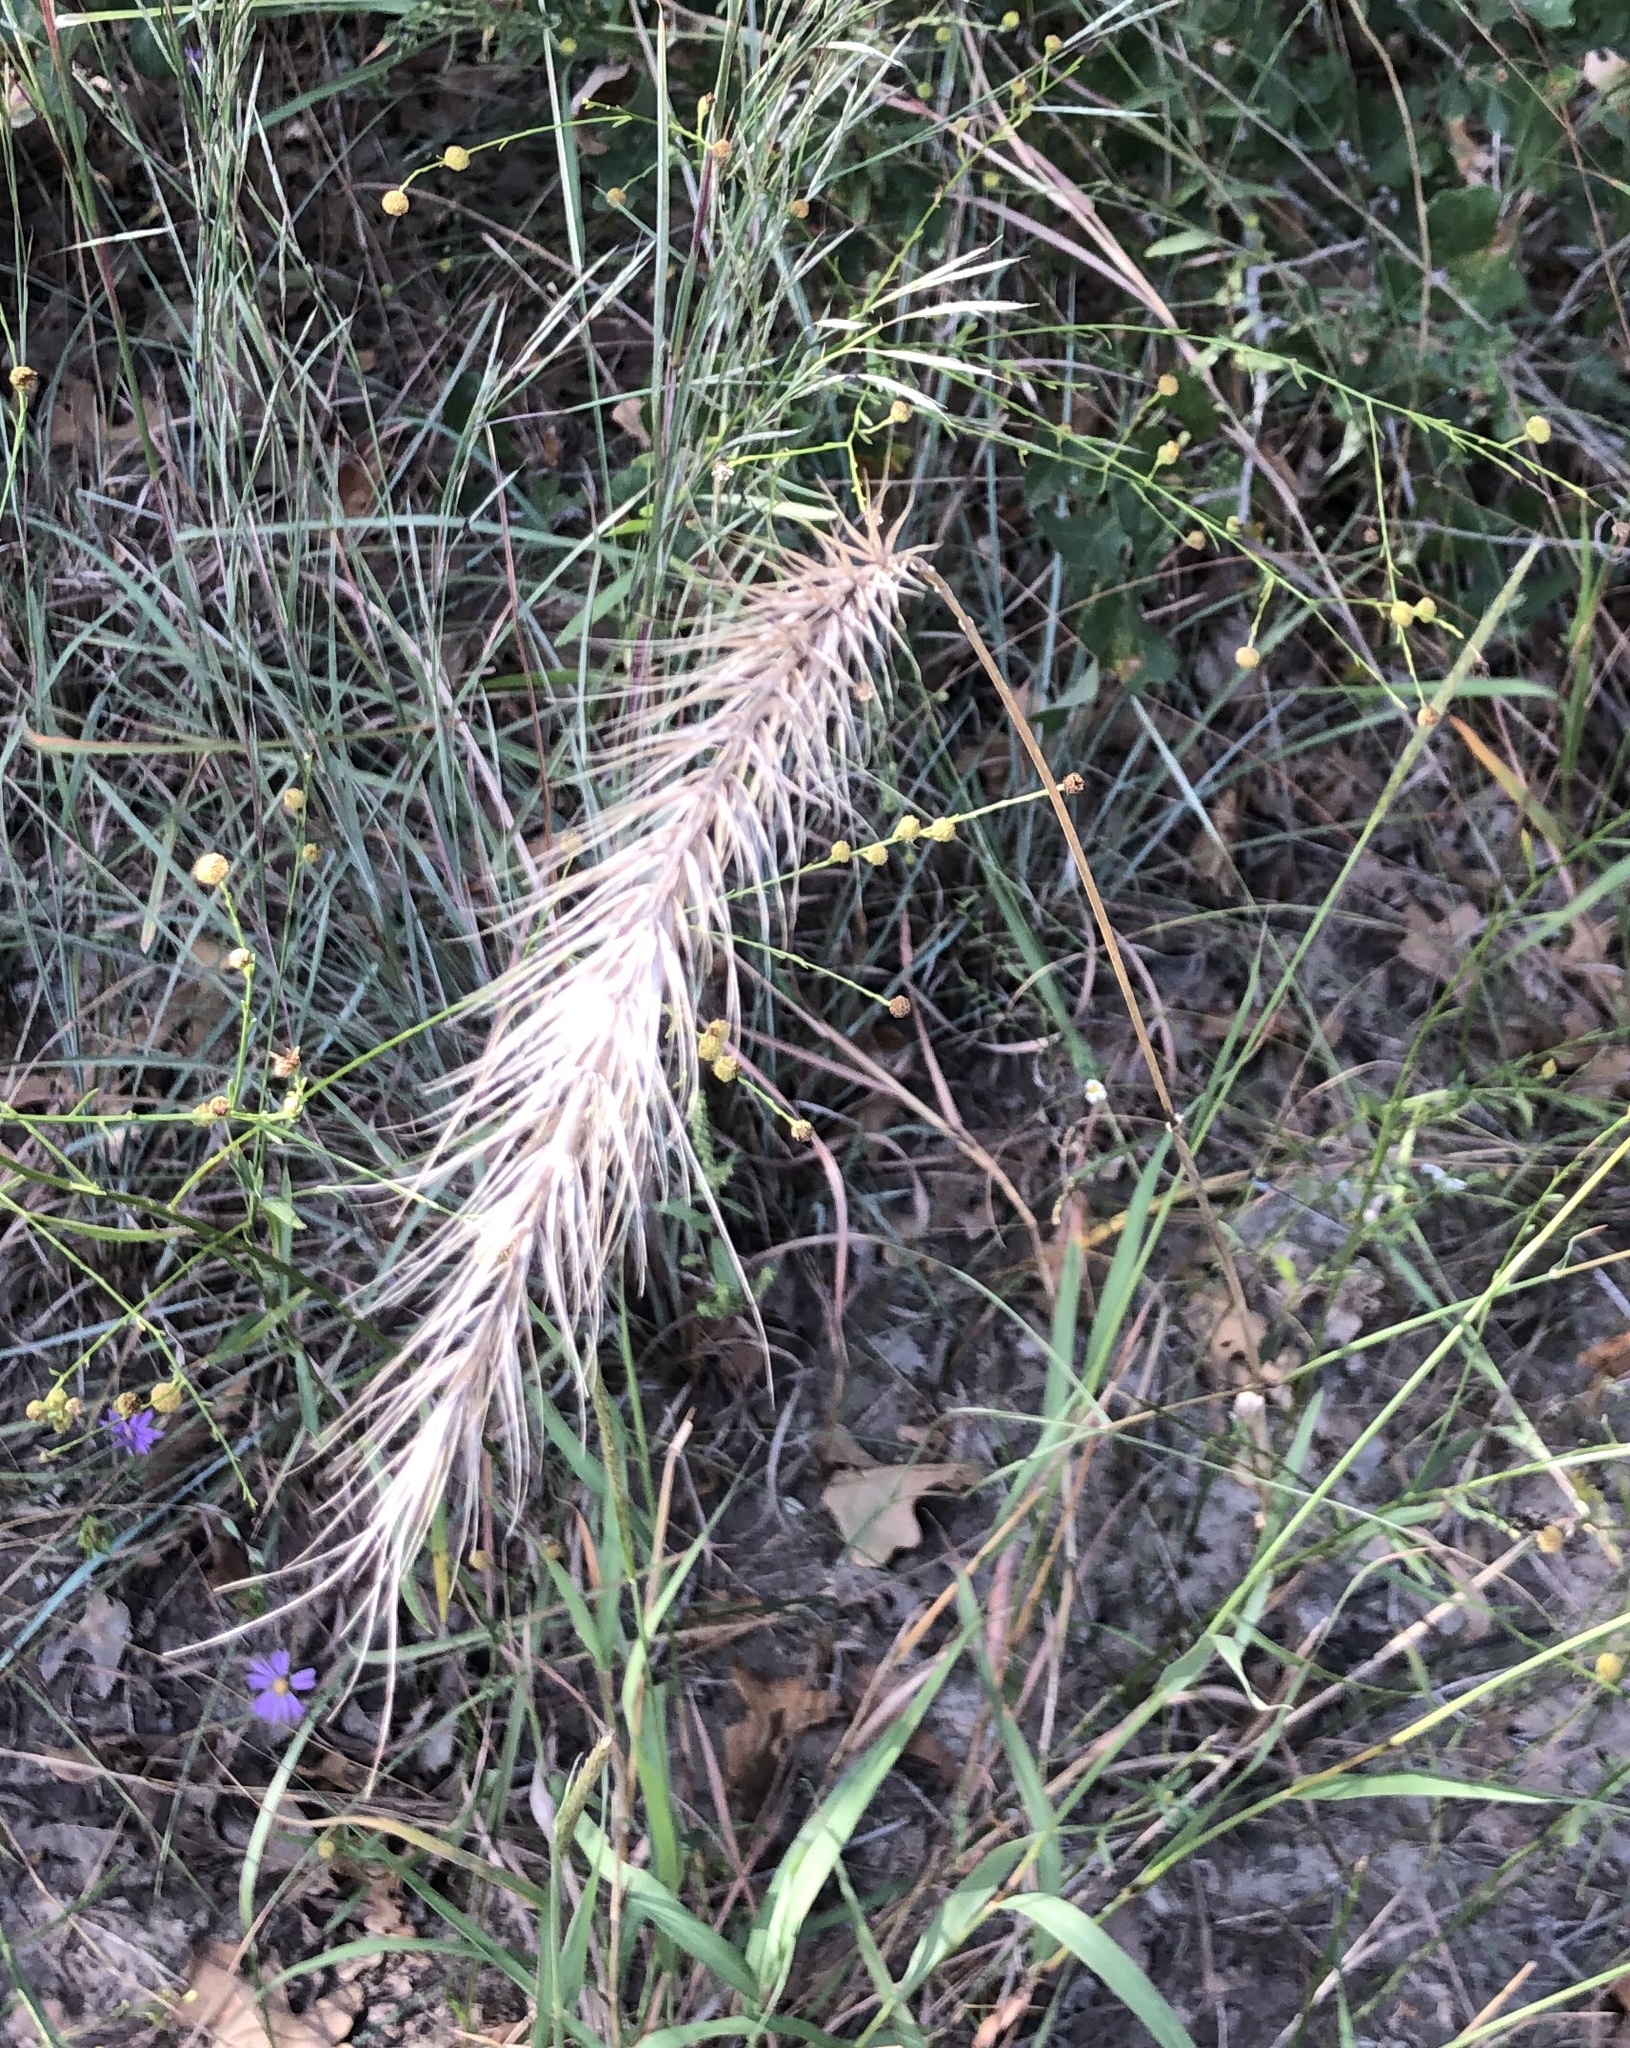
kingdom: Plantae
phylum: Tracheophyta
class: Liliopsida
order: Poales
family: Poaceae
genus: Elymus
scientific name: Elymus canadensis
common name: Canada wild rye
